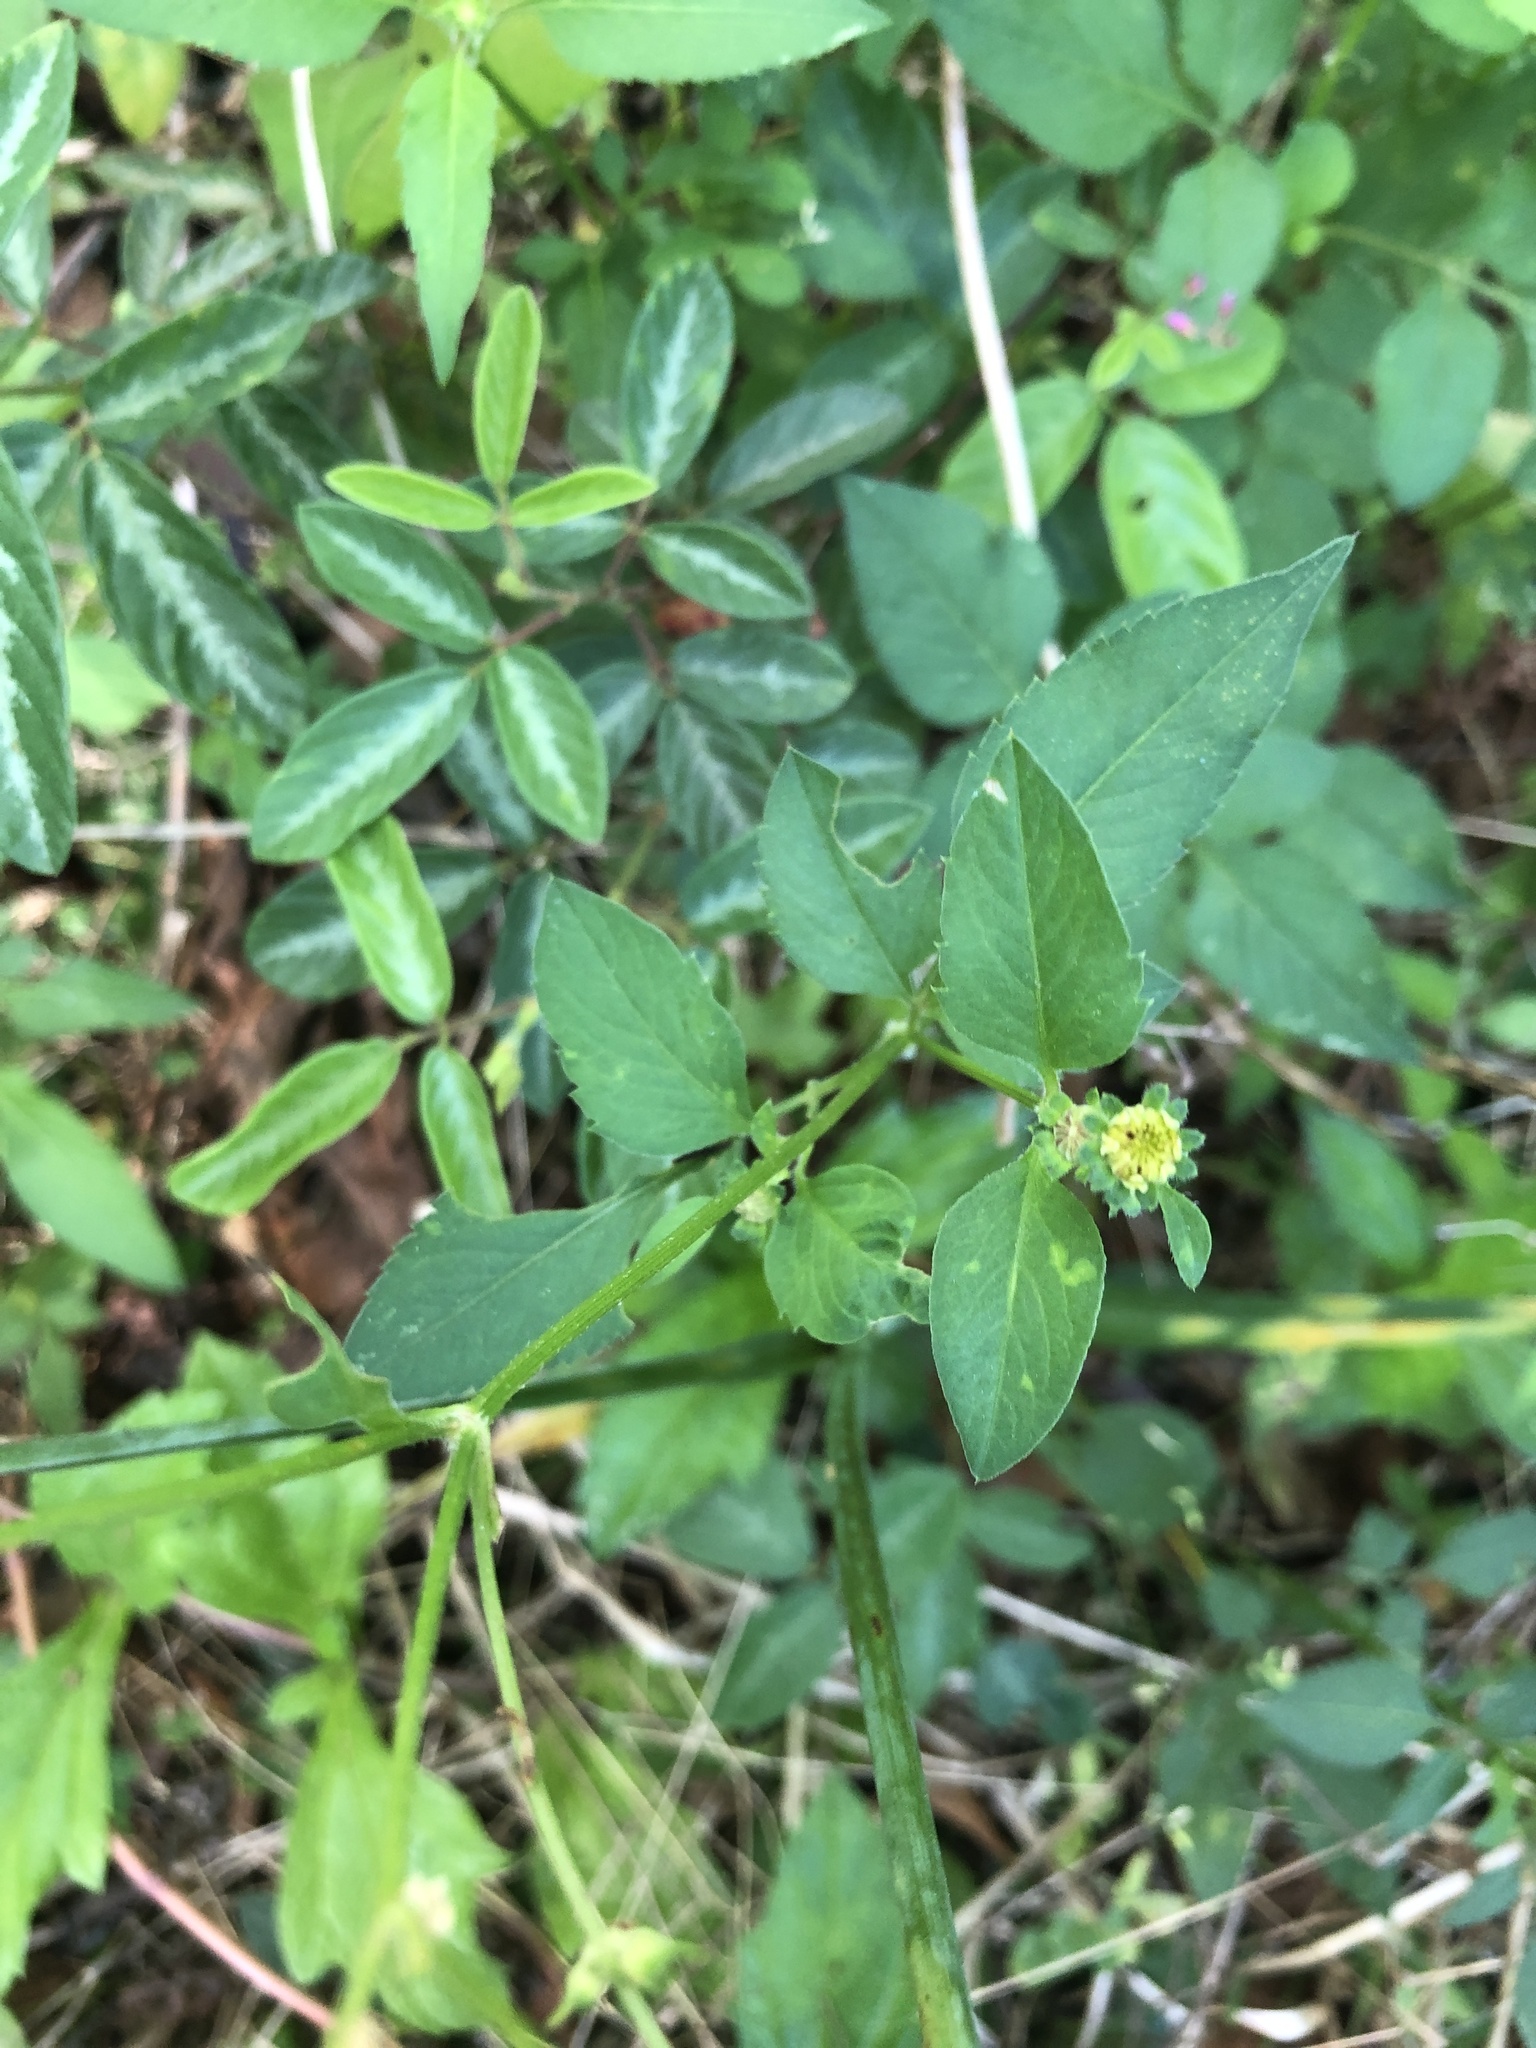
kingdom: Plantae
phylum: Tracheophyta
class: Magnoliopsida
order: Asterales
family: Asteraceae
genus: Bidens
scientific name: Bidens alba
